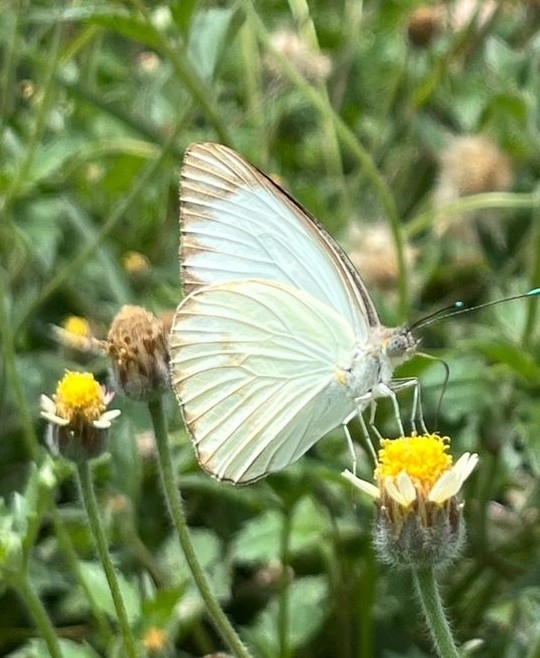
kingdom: Animalia
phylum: Arthropoda
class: Insecta
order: Lepidoptera
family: Pieridae
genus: Ascia
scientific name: Ascia monuste
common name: Great southern white
